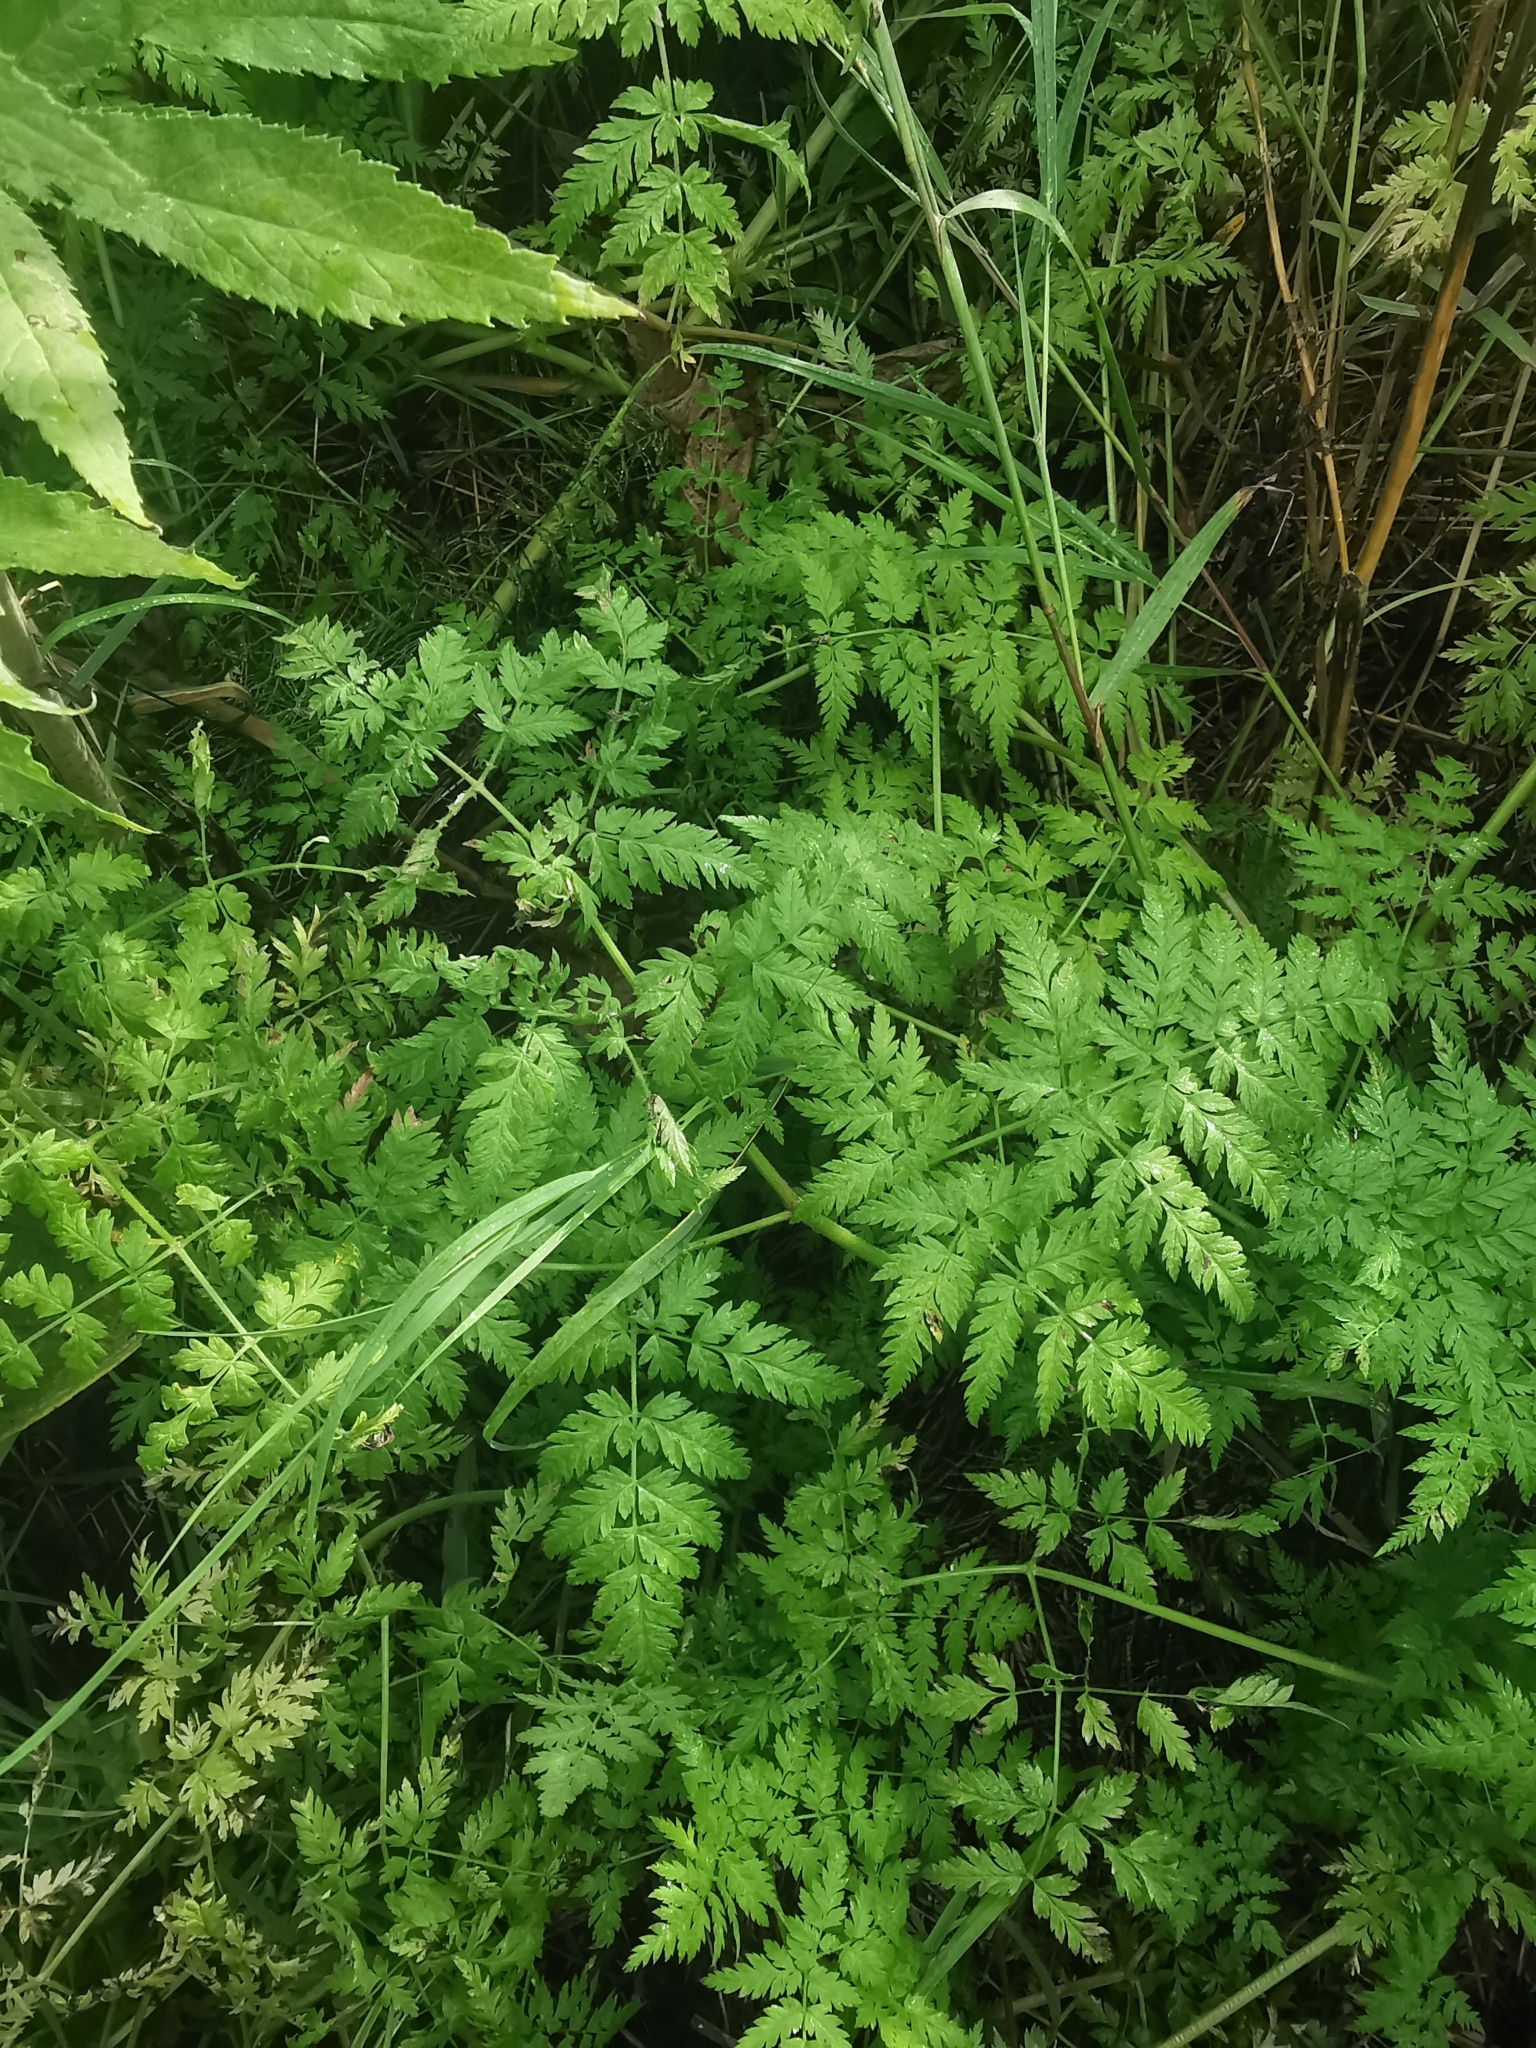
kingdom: Plantae
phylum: Tracheophyta
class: Magnoliopsida
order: Apiales
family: Apiaceae
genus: Anthriscus
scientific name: Anthriscus sylvestris
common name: Cow parsley
